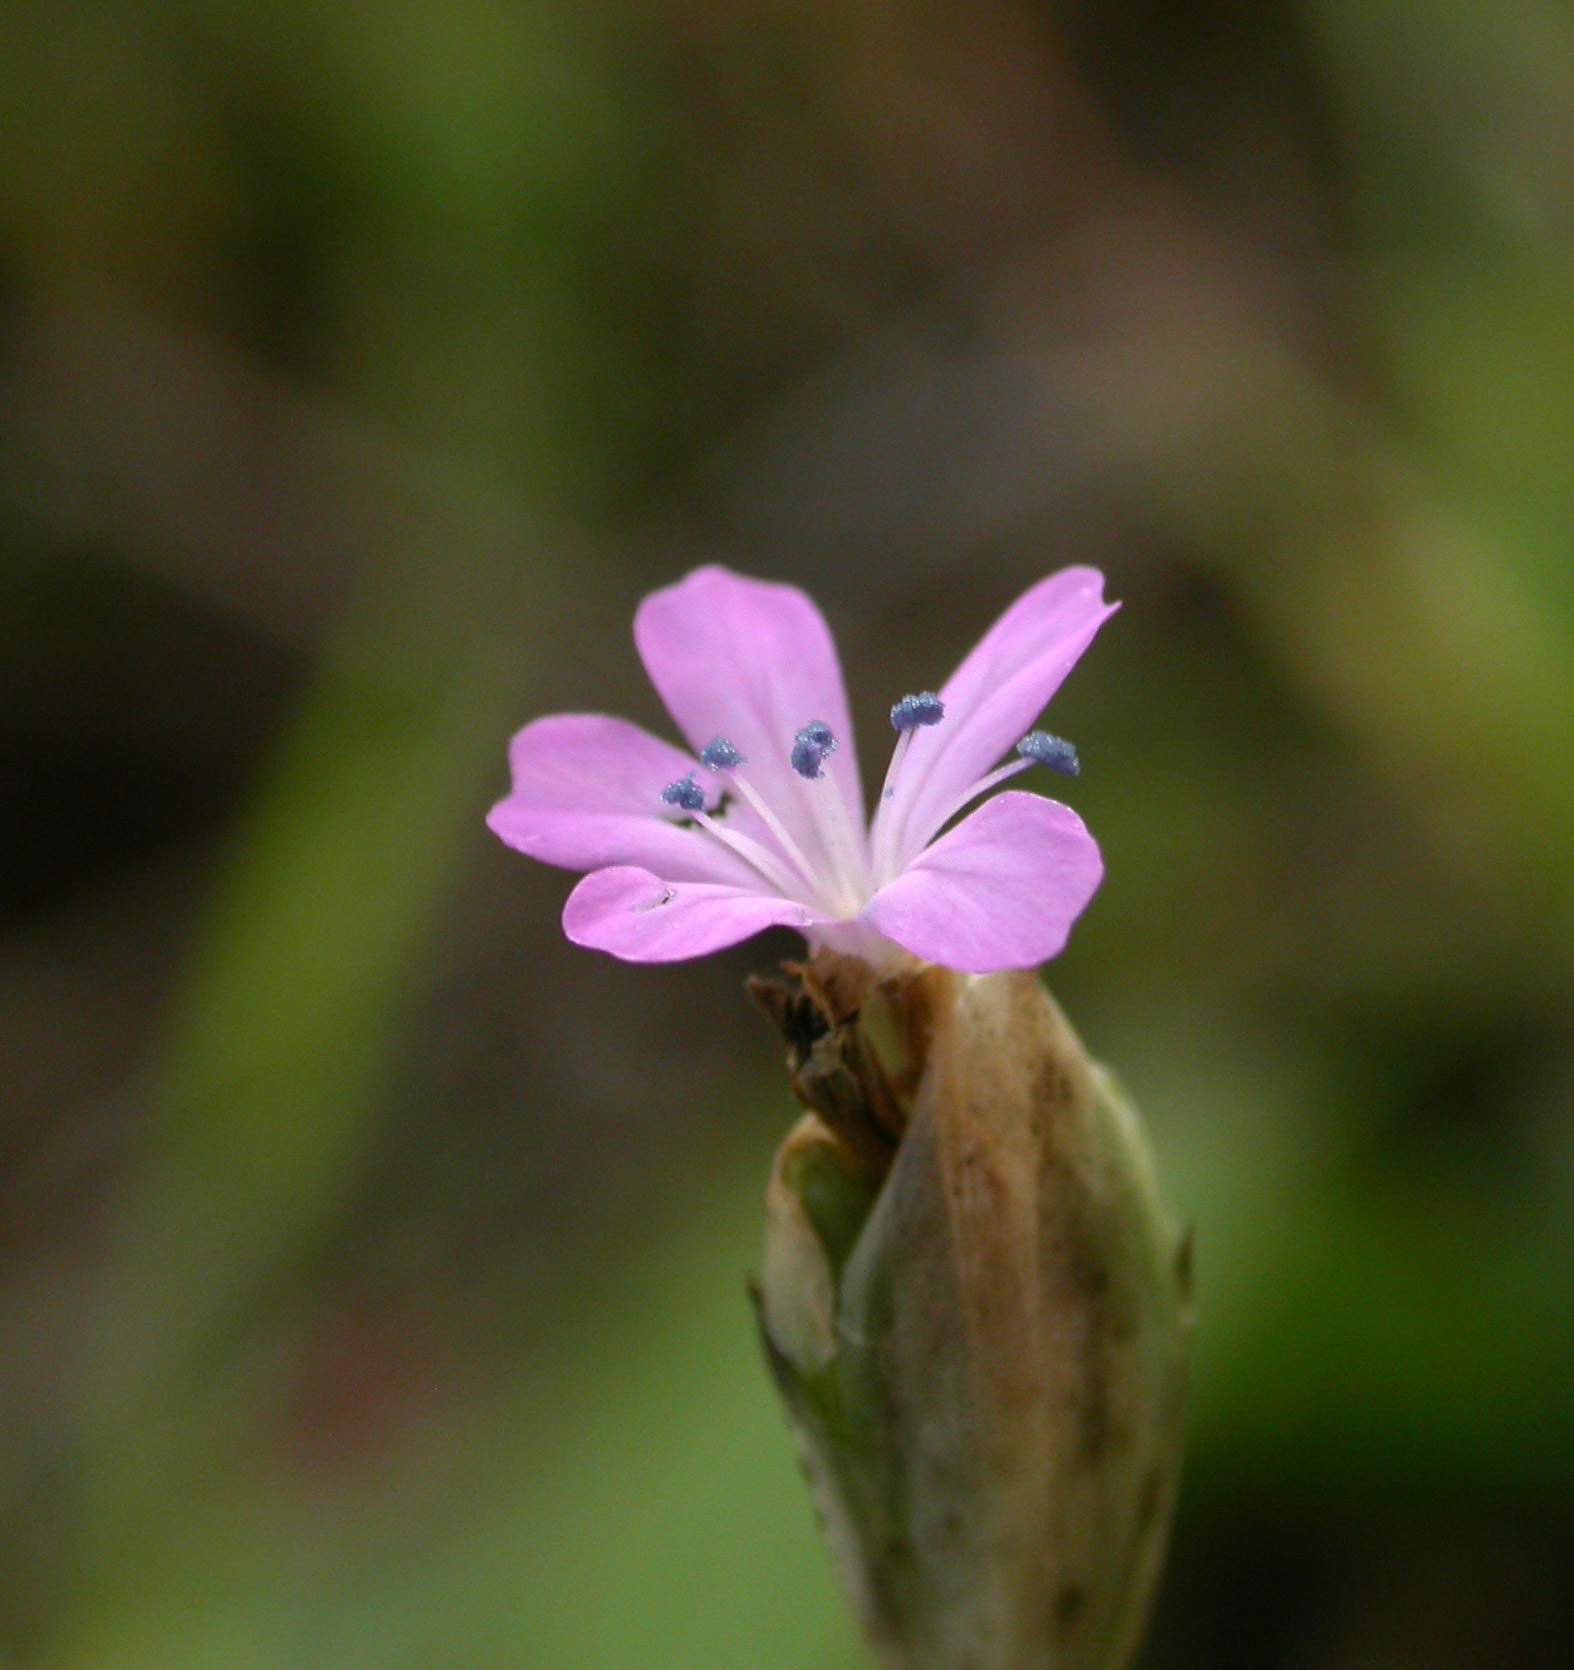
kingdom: Plantae
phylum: Tracheophyta
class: Magnoliopsida
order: Caryophyllales
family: Caryophyllaceae
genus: Petrorhagia
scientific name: Petrorhagia prolifera
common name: Proliferous pink
